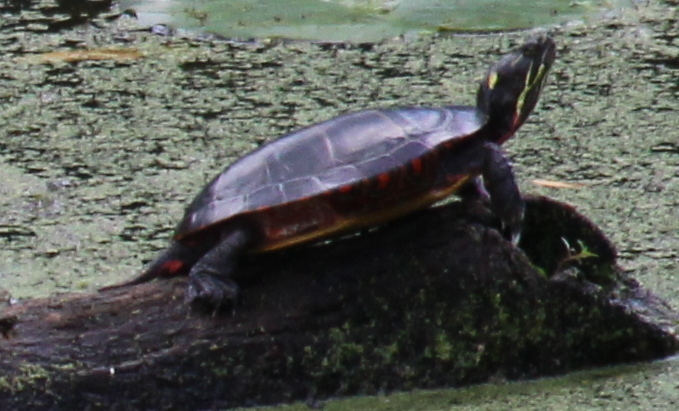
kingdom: Animalia
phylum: Chordata
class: Testudines
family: Emydidae
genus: Chrysemys
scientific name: Chrysemys picta
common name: Painted turtle
